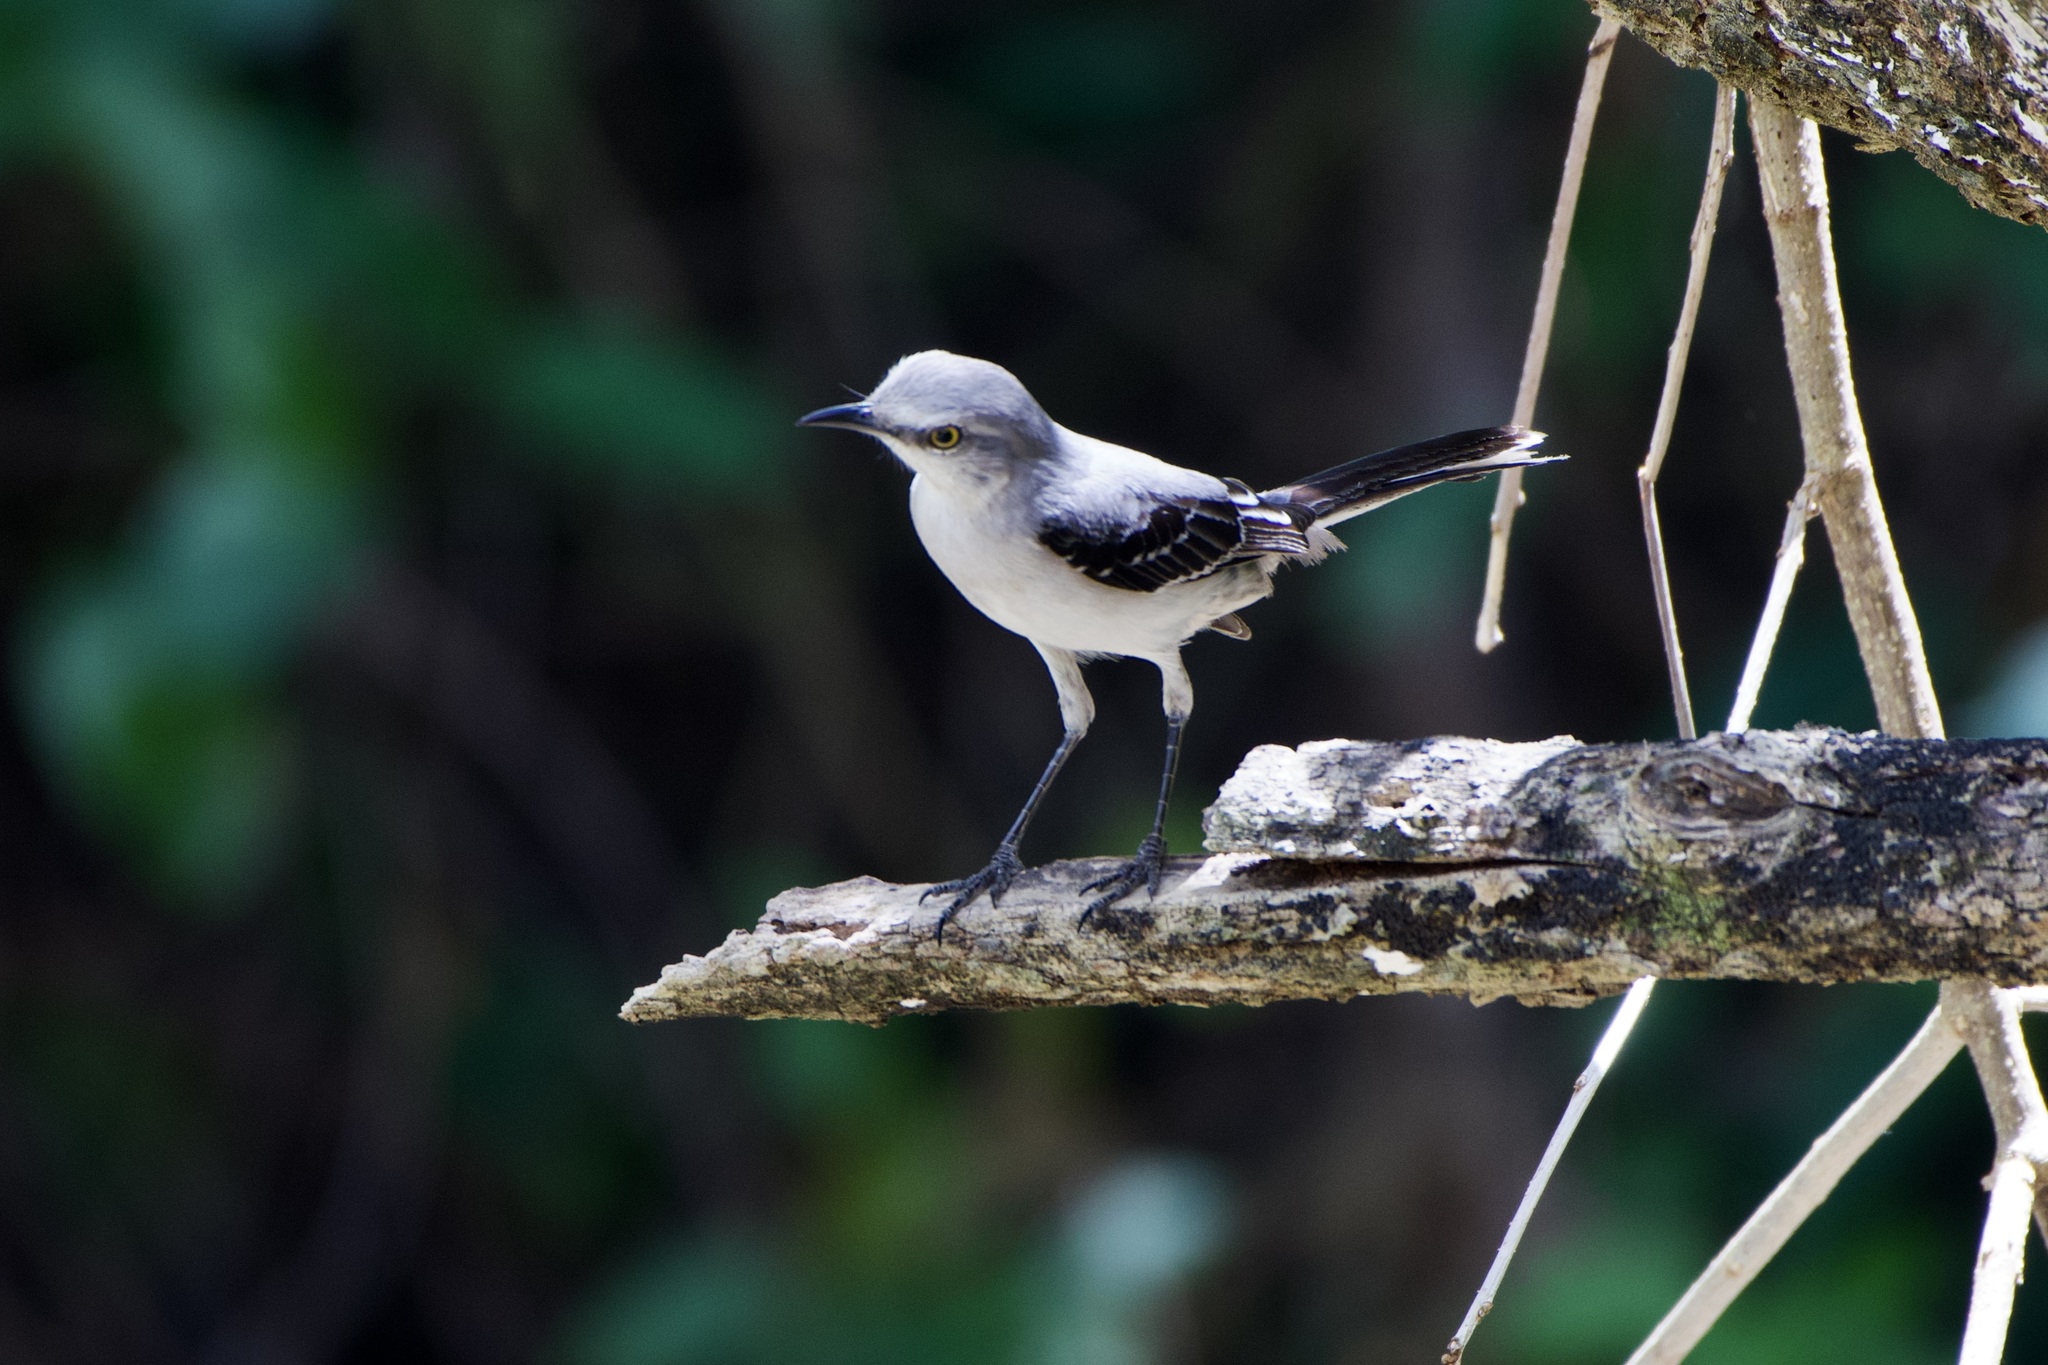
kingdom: Animalia
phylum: Chordata
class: Aves
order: Passeriformes
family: Mimidae
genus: Mimus
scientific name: Mimus gilvus
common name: Tropical mockingbird
